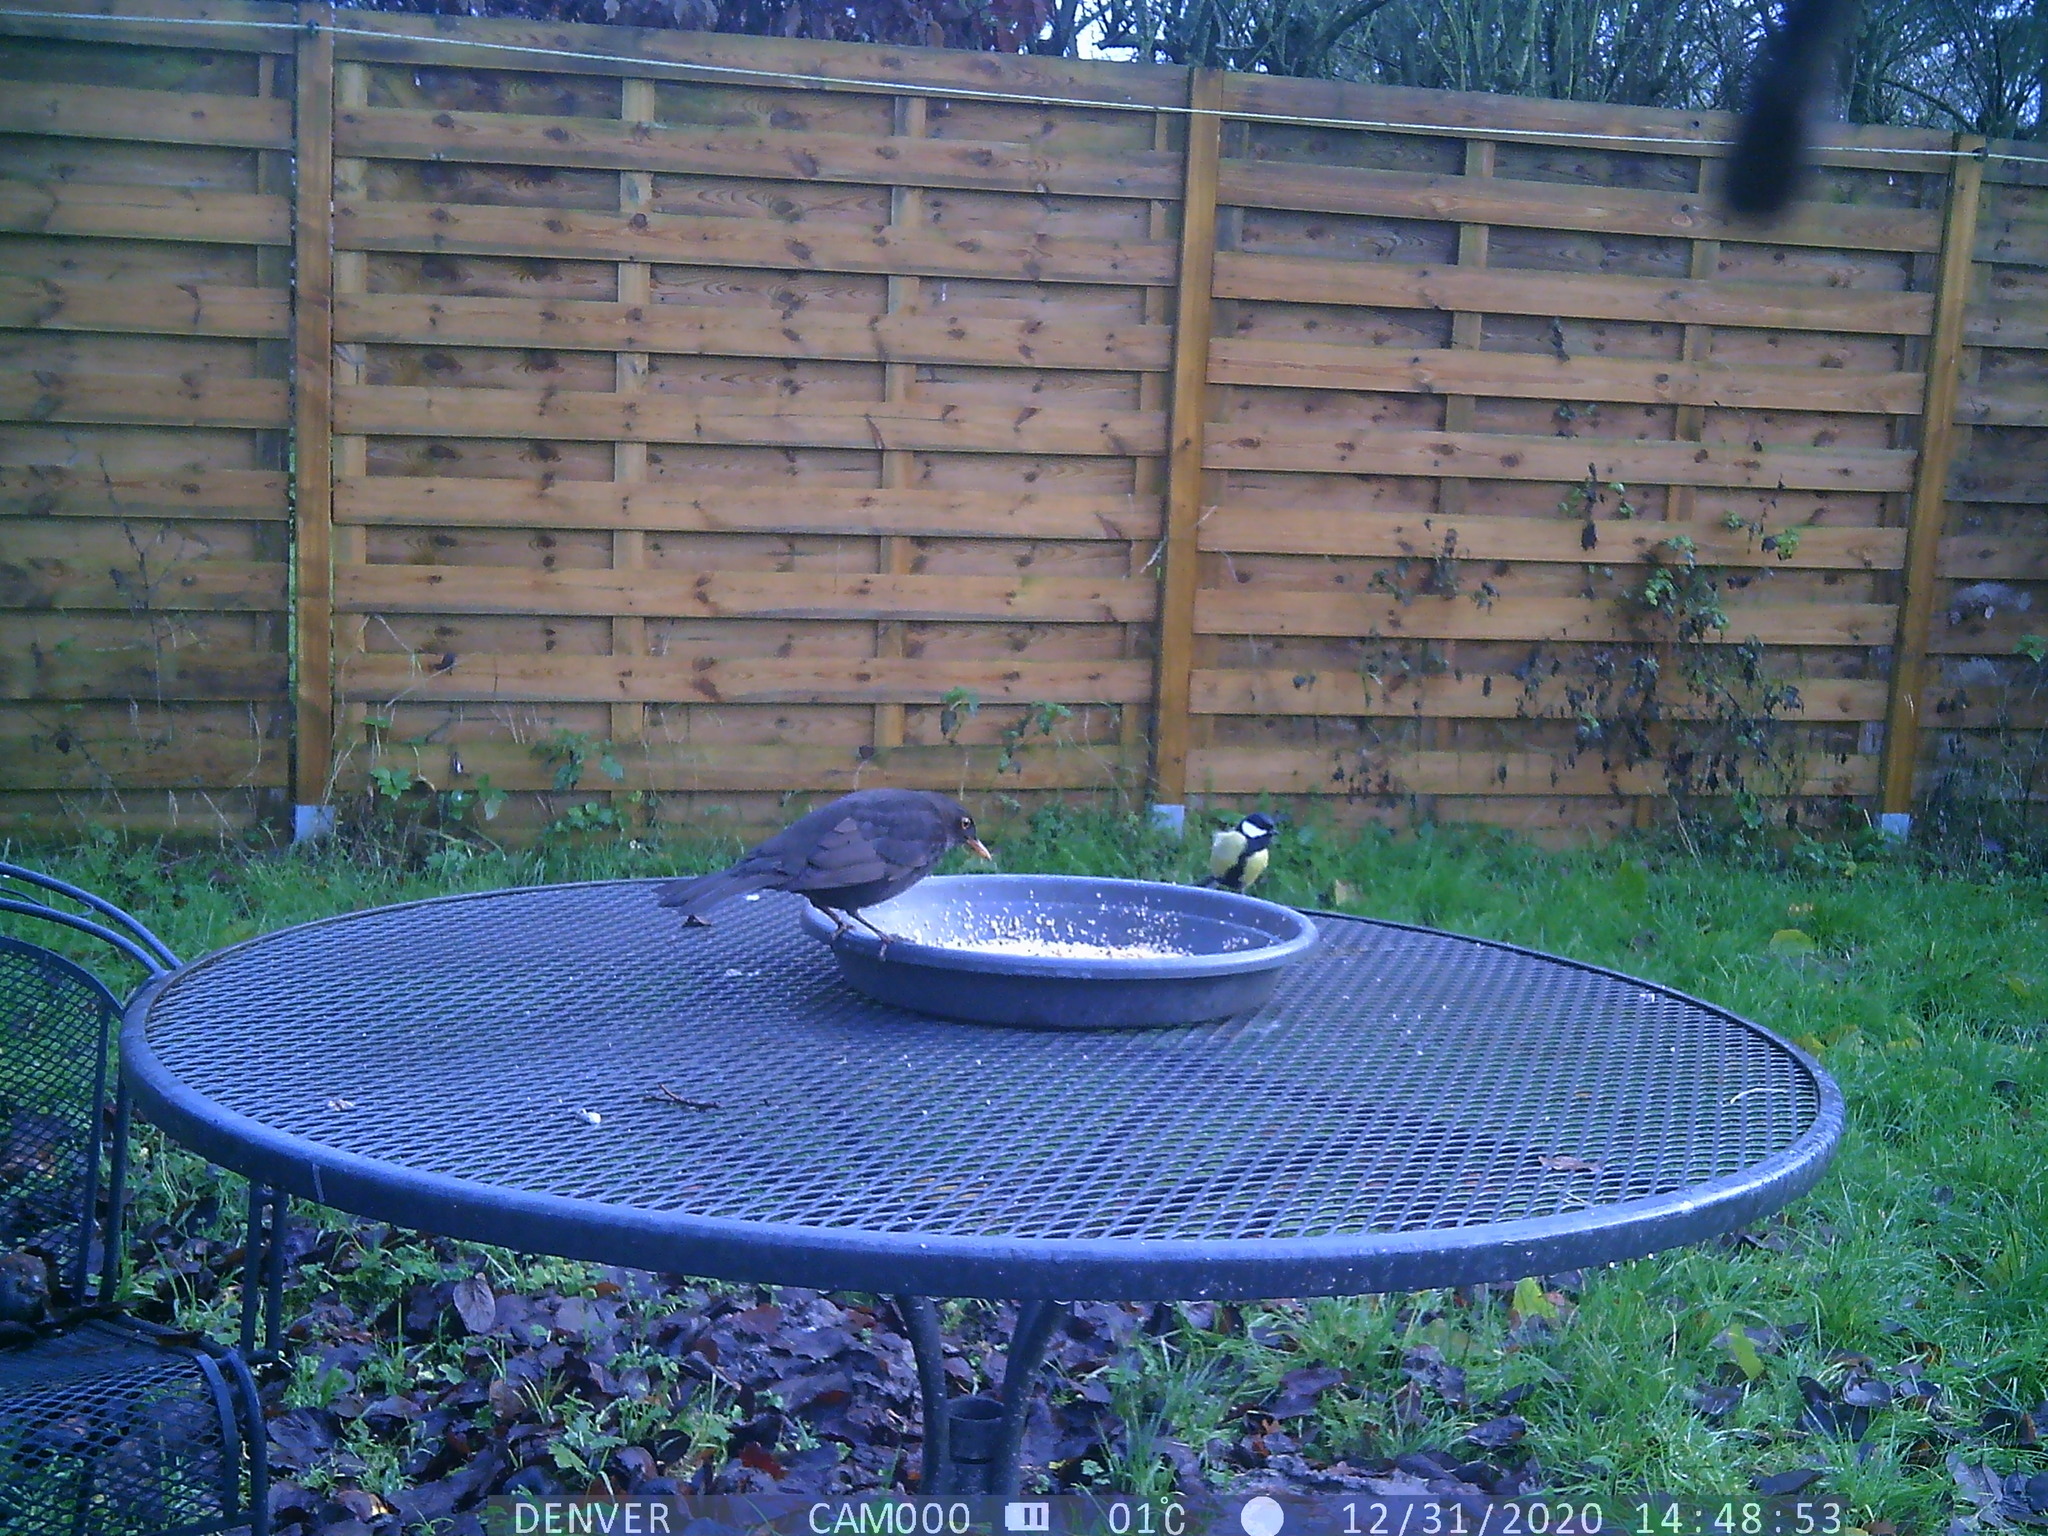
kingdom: Animalia
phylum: Chordata
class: Aves
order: Passeriformes
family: Paridae
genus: Parus
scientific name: Parus major
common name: Great tit
